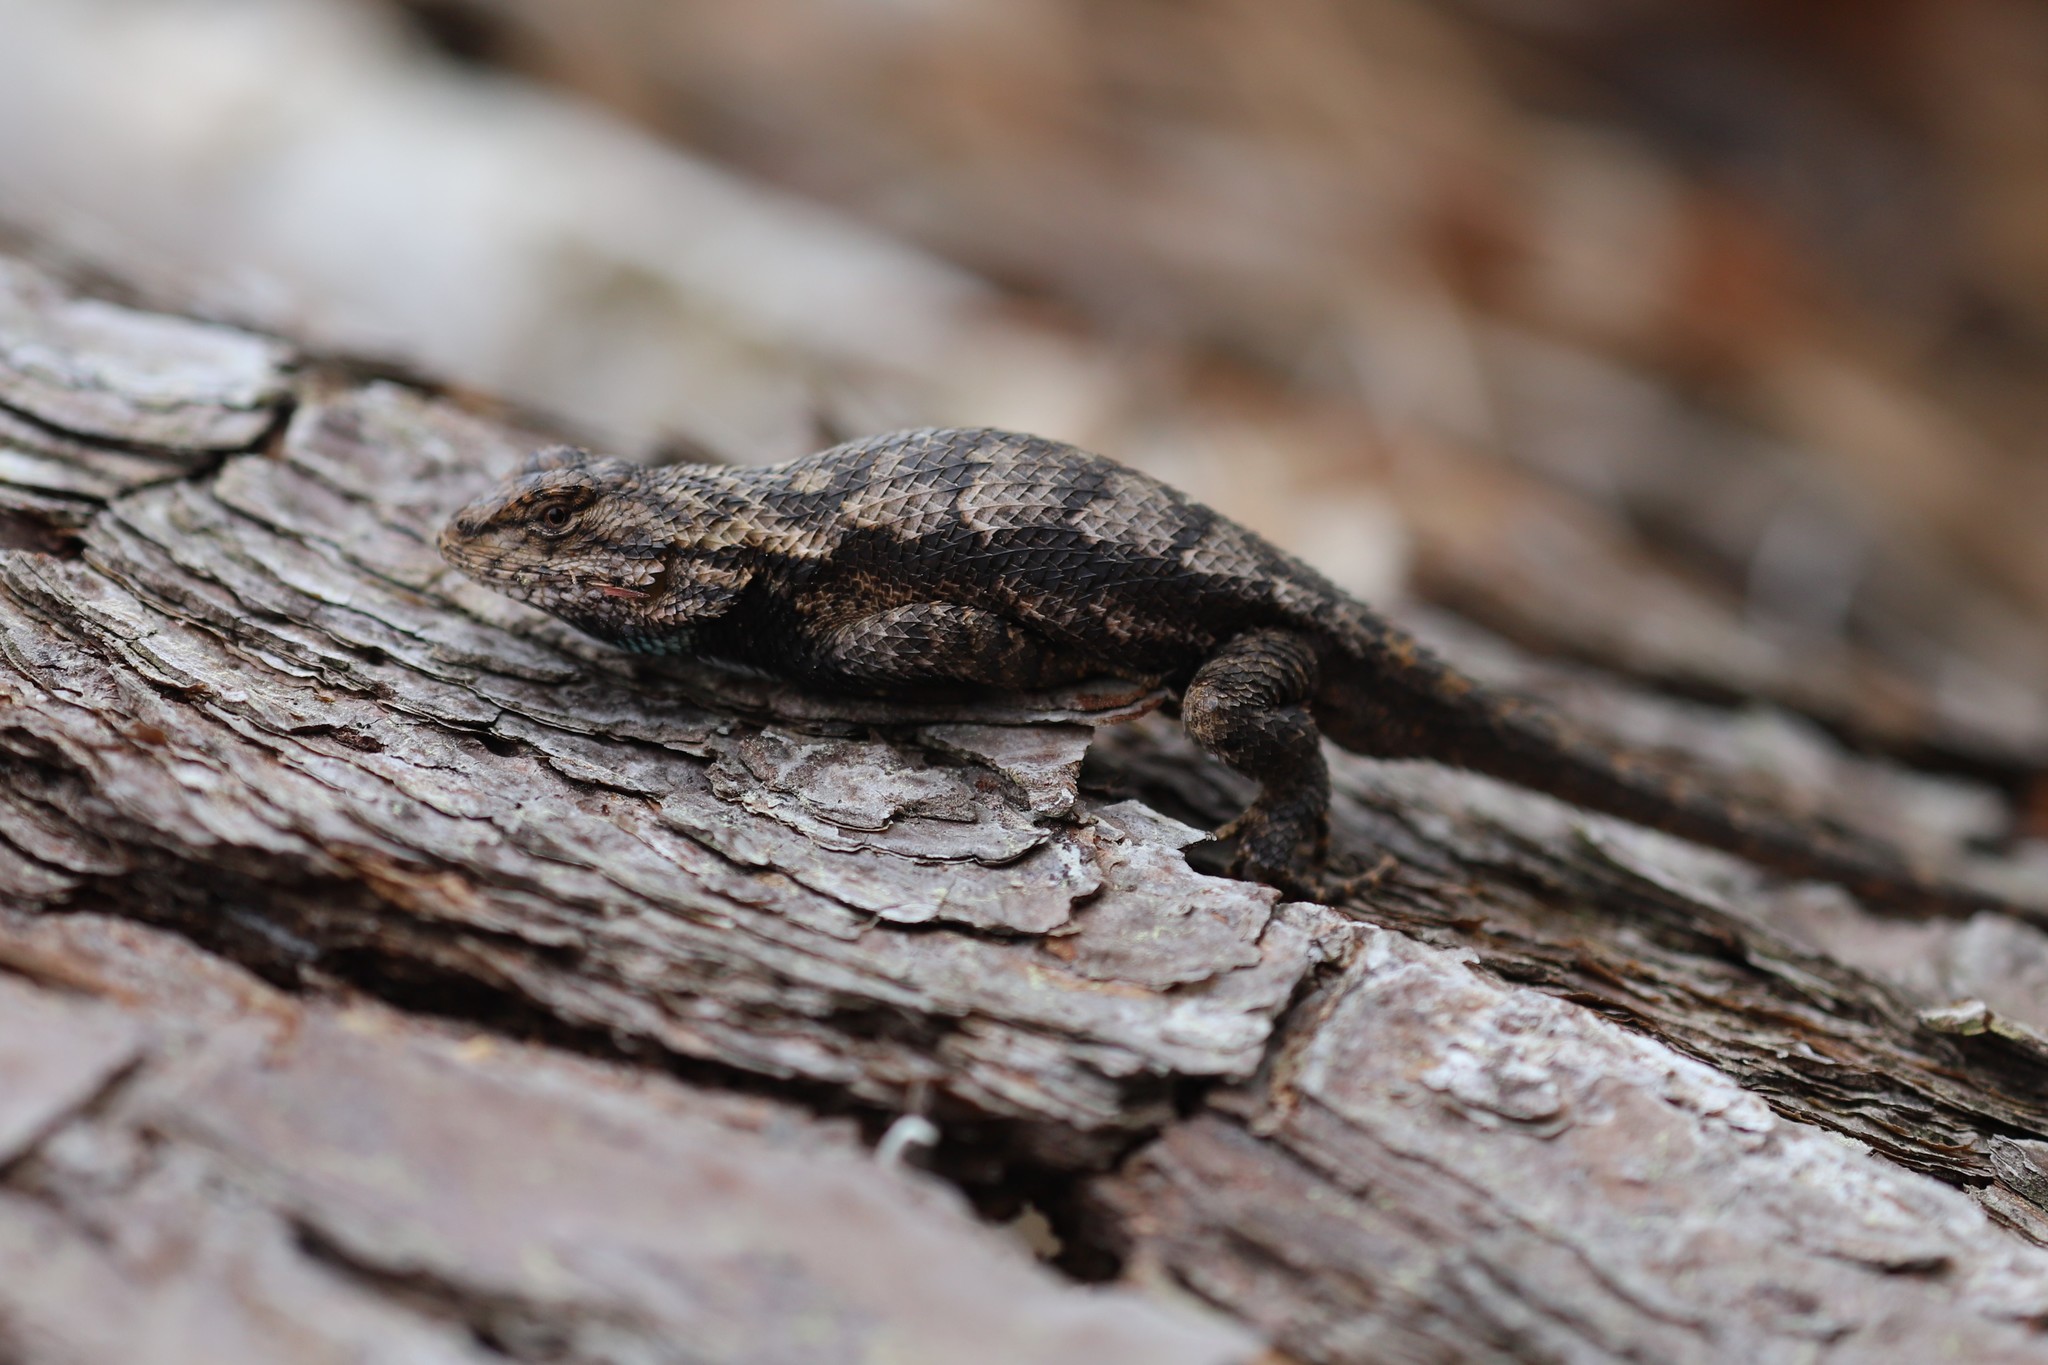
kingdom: Animalia
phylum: Chordata
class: Squamata
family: Phrynosomatidae
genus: Sceloporus
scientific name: Sceloporus undulatus
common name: Eastern fence lizard
